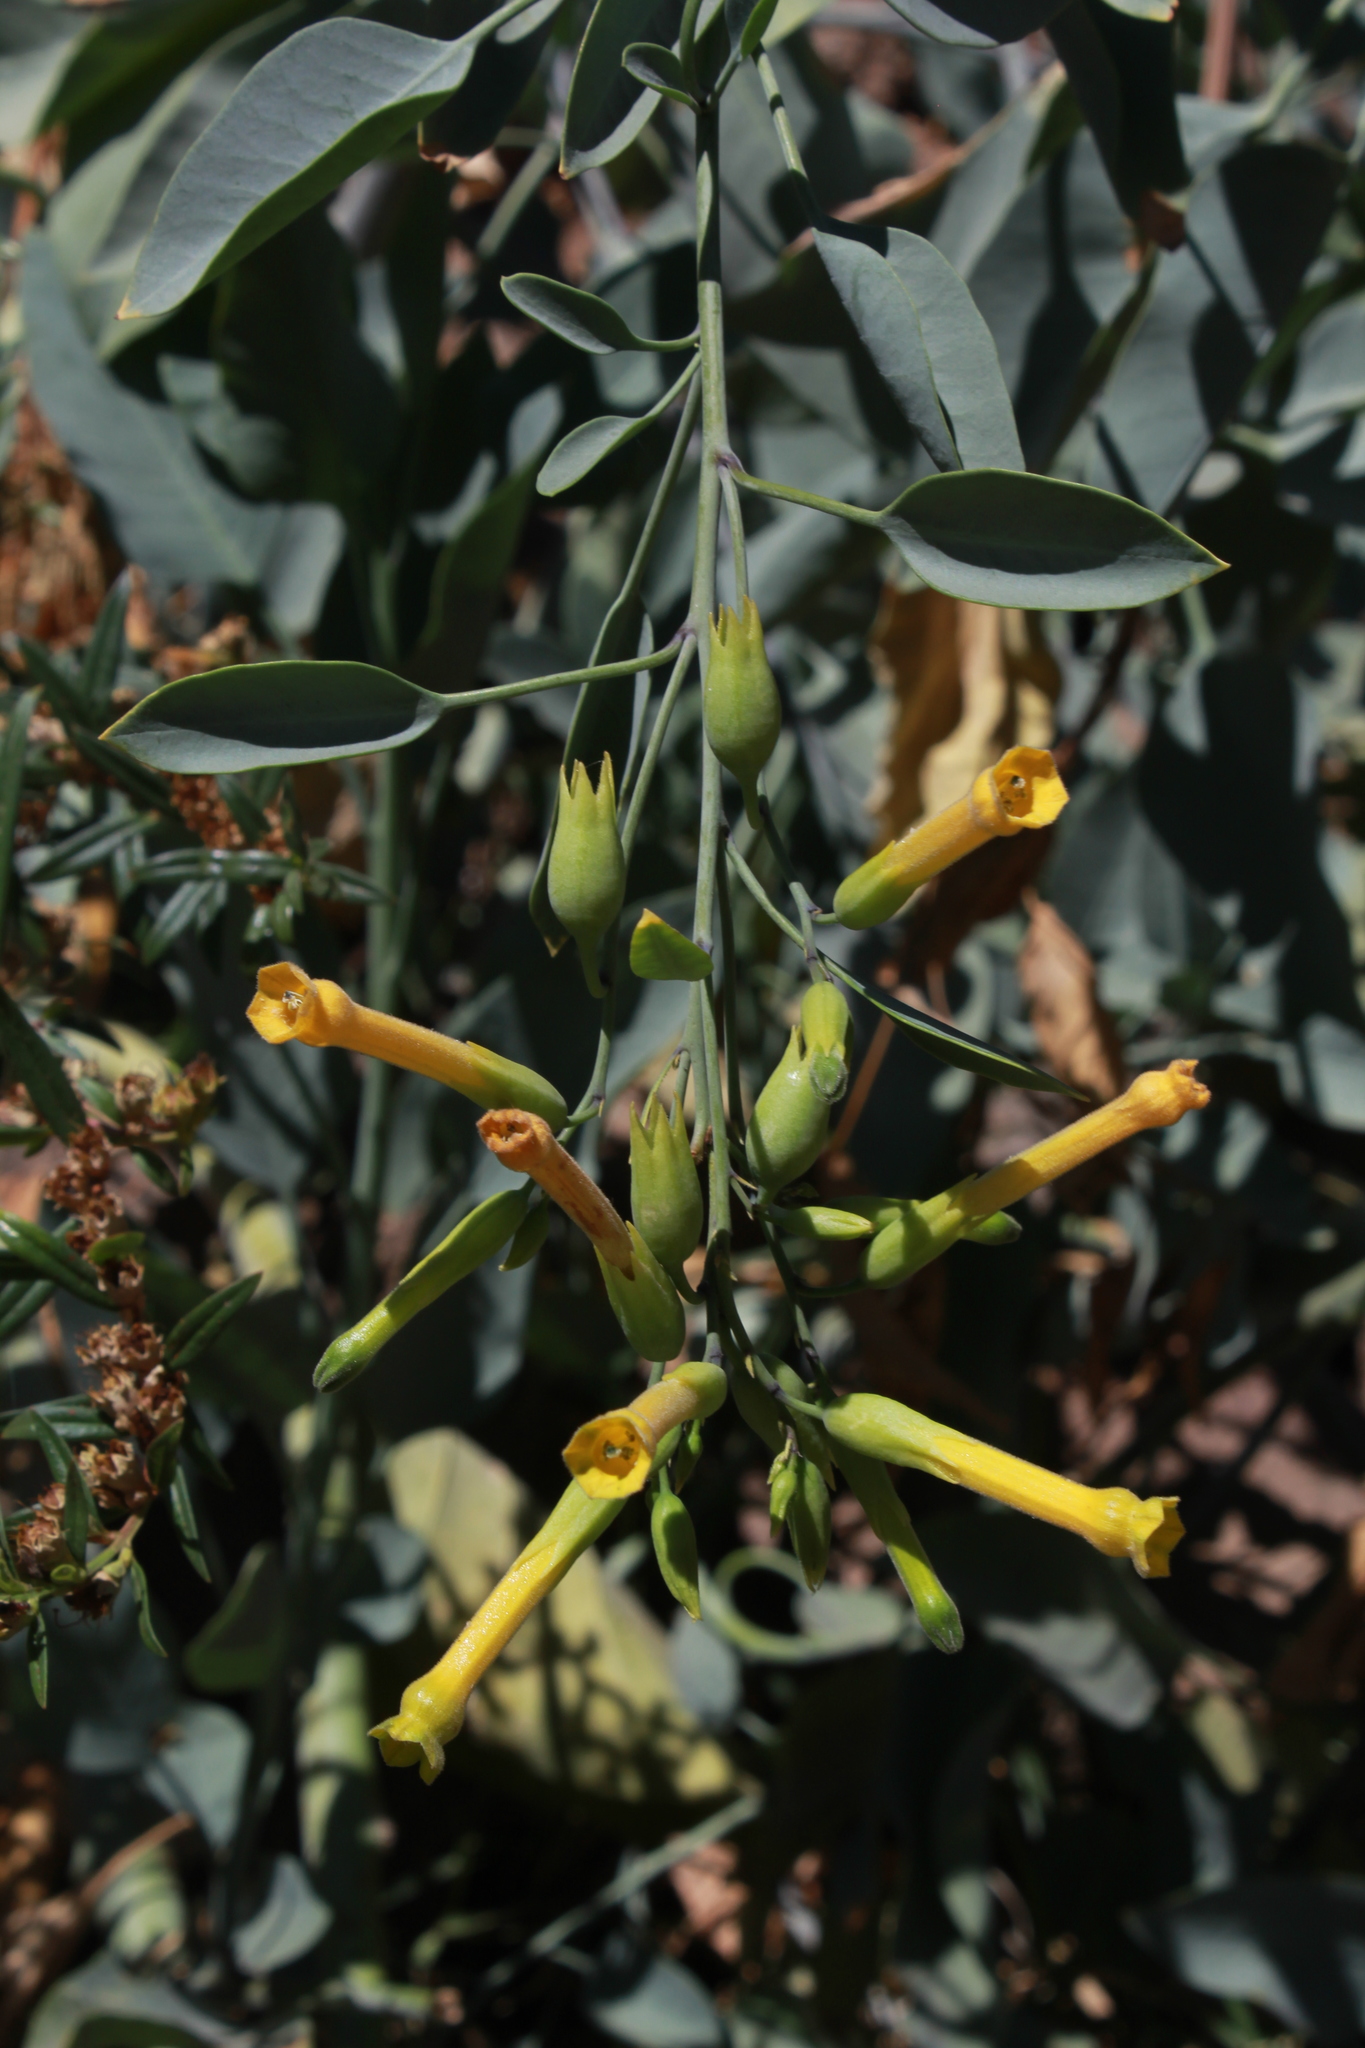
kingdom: Plantae
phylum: Tracheophyta
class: Magnoliopsida
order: Solanales
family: Solanaceae
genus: Nicotiana
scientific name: Nicotiana glauca
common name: Tree tobacco
